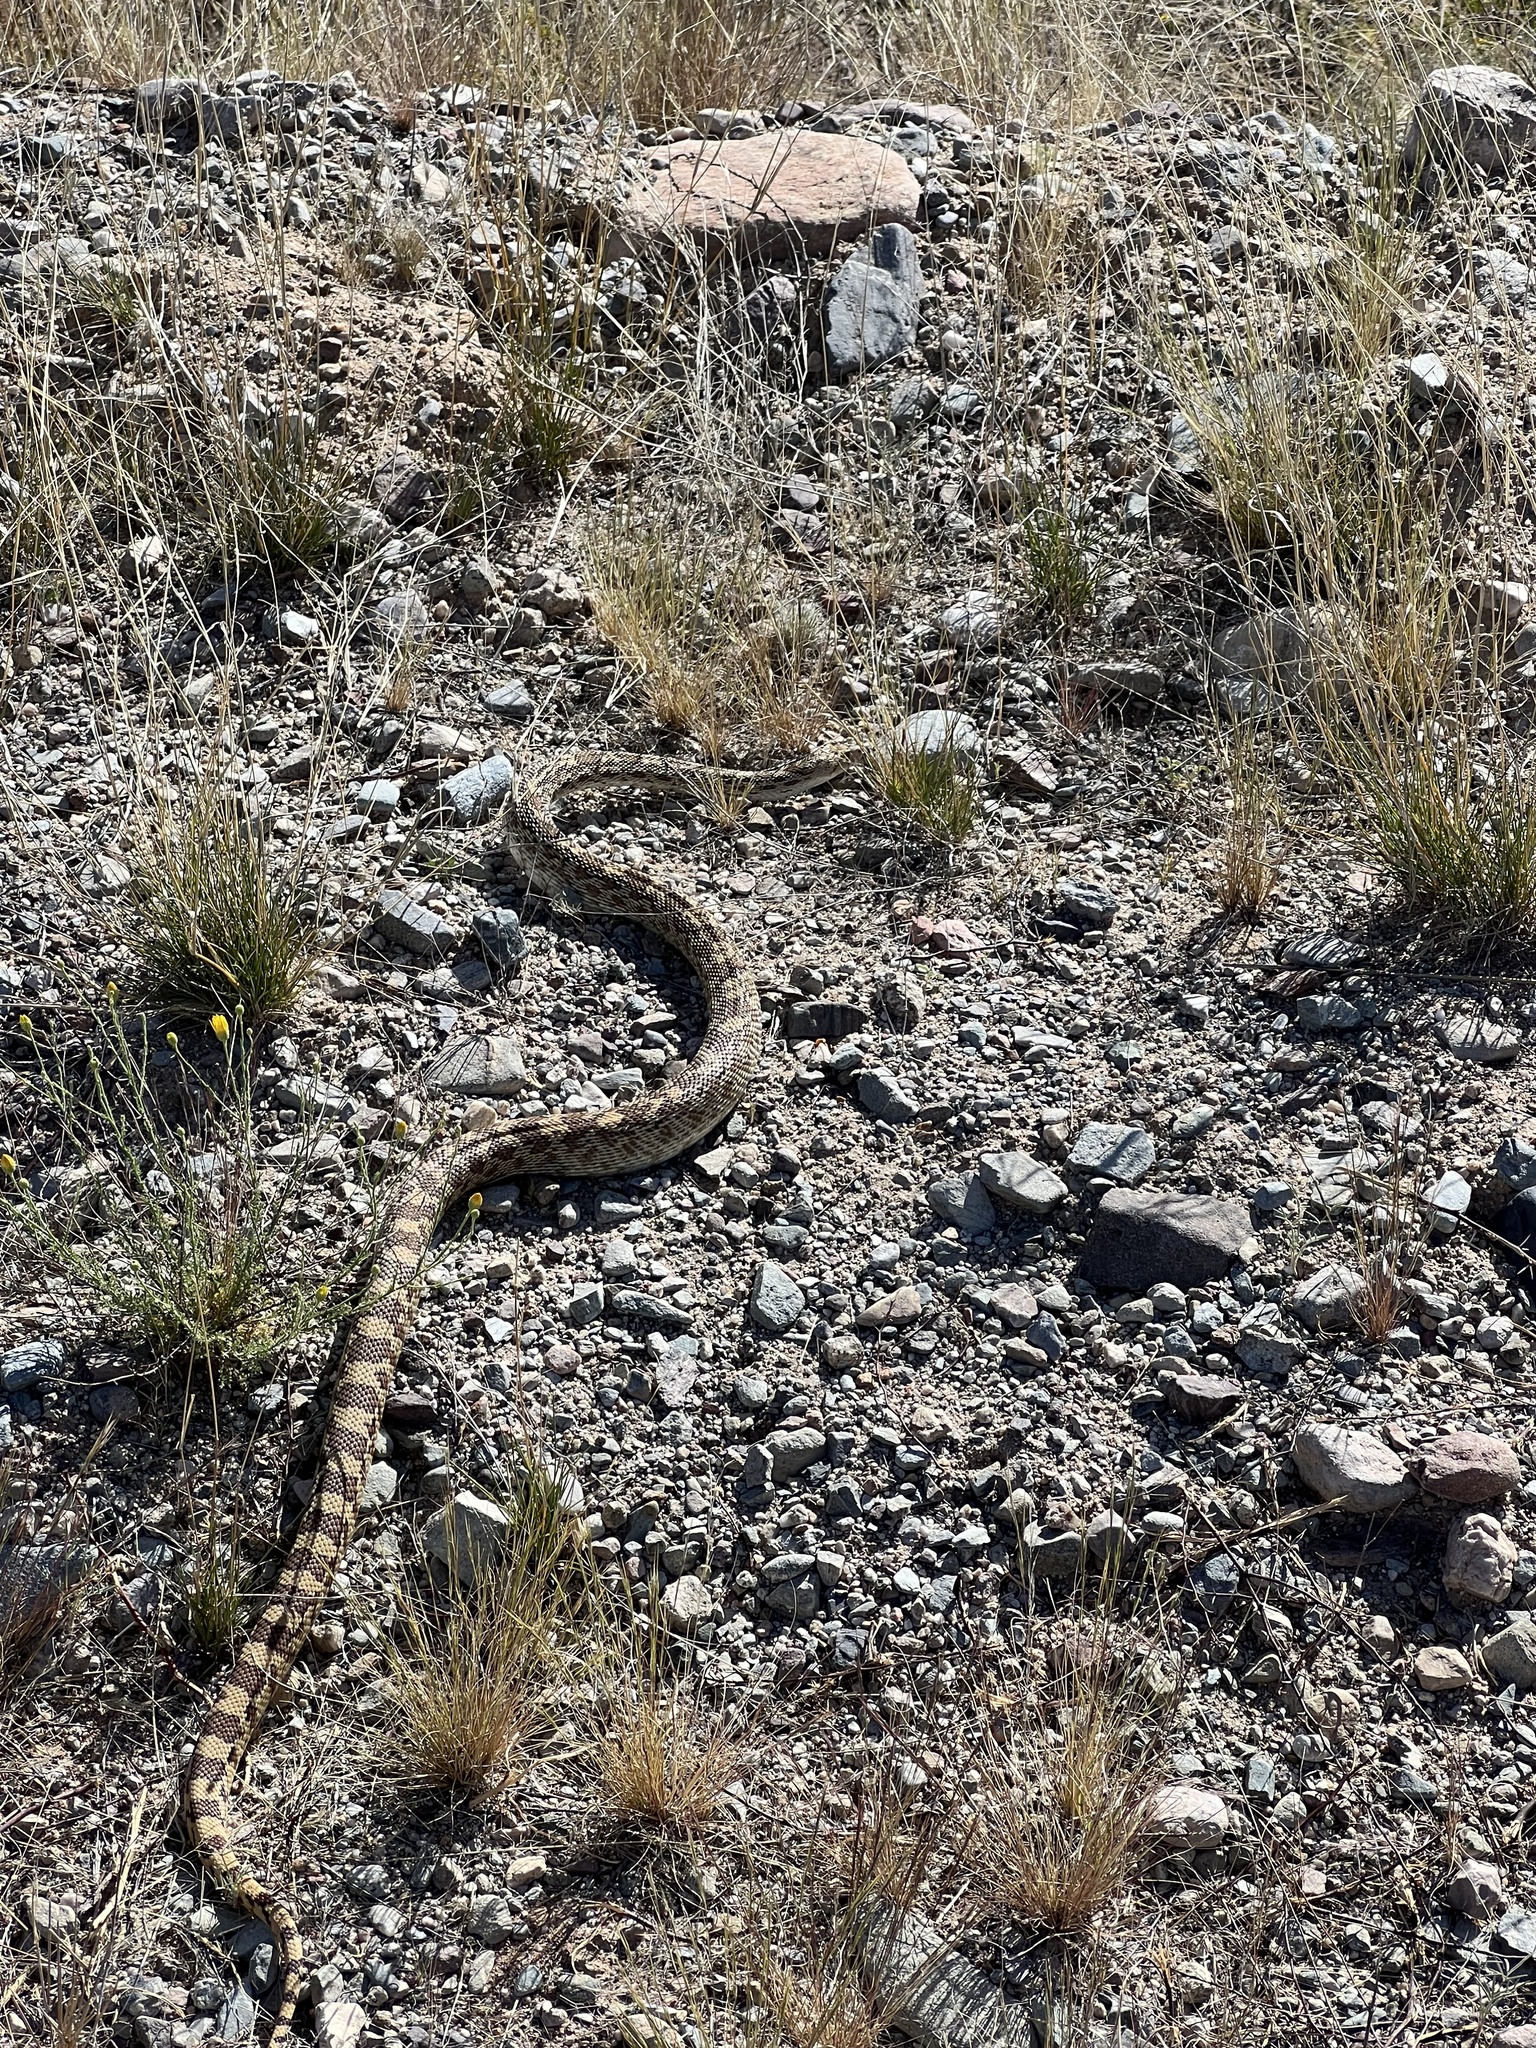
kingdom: Animalia
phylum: Chordata
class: Squamata
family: Colubridae
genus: Pituophis
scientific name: Pituophis catenifer
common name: Gopher snake
